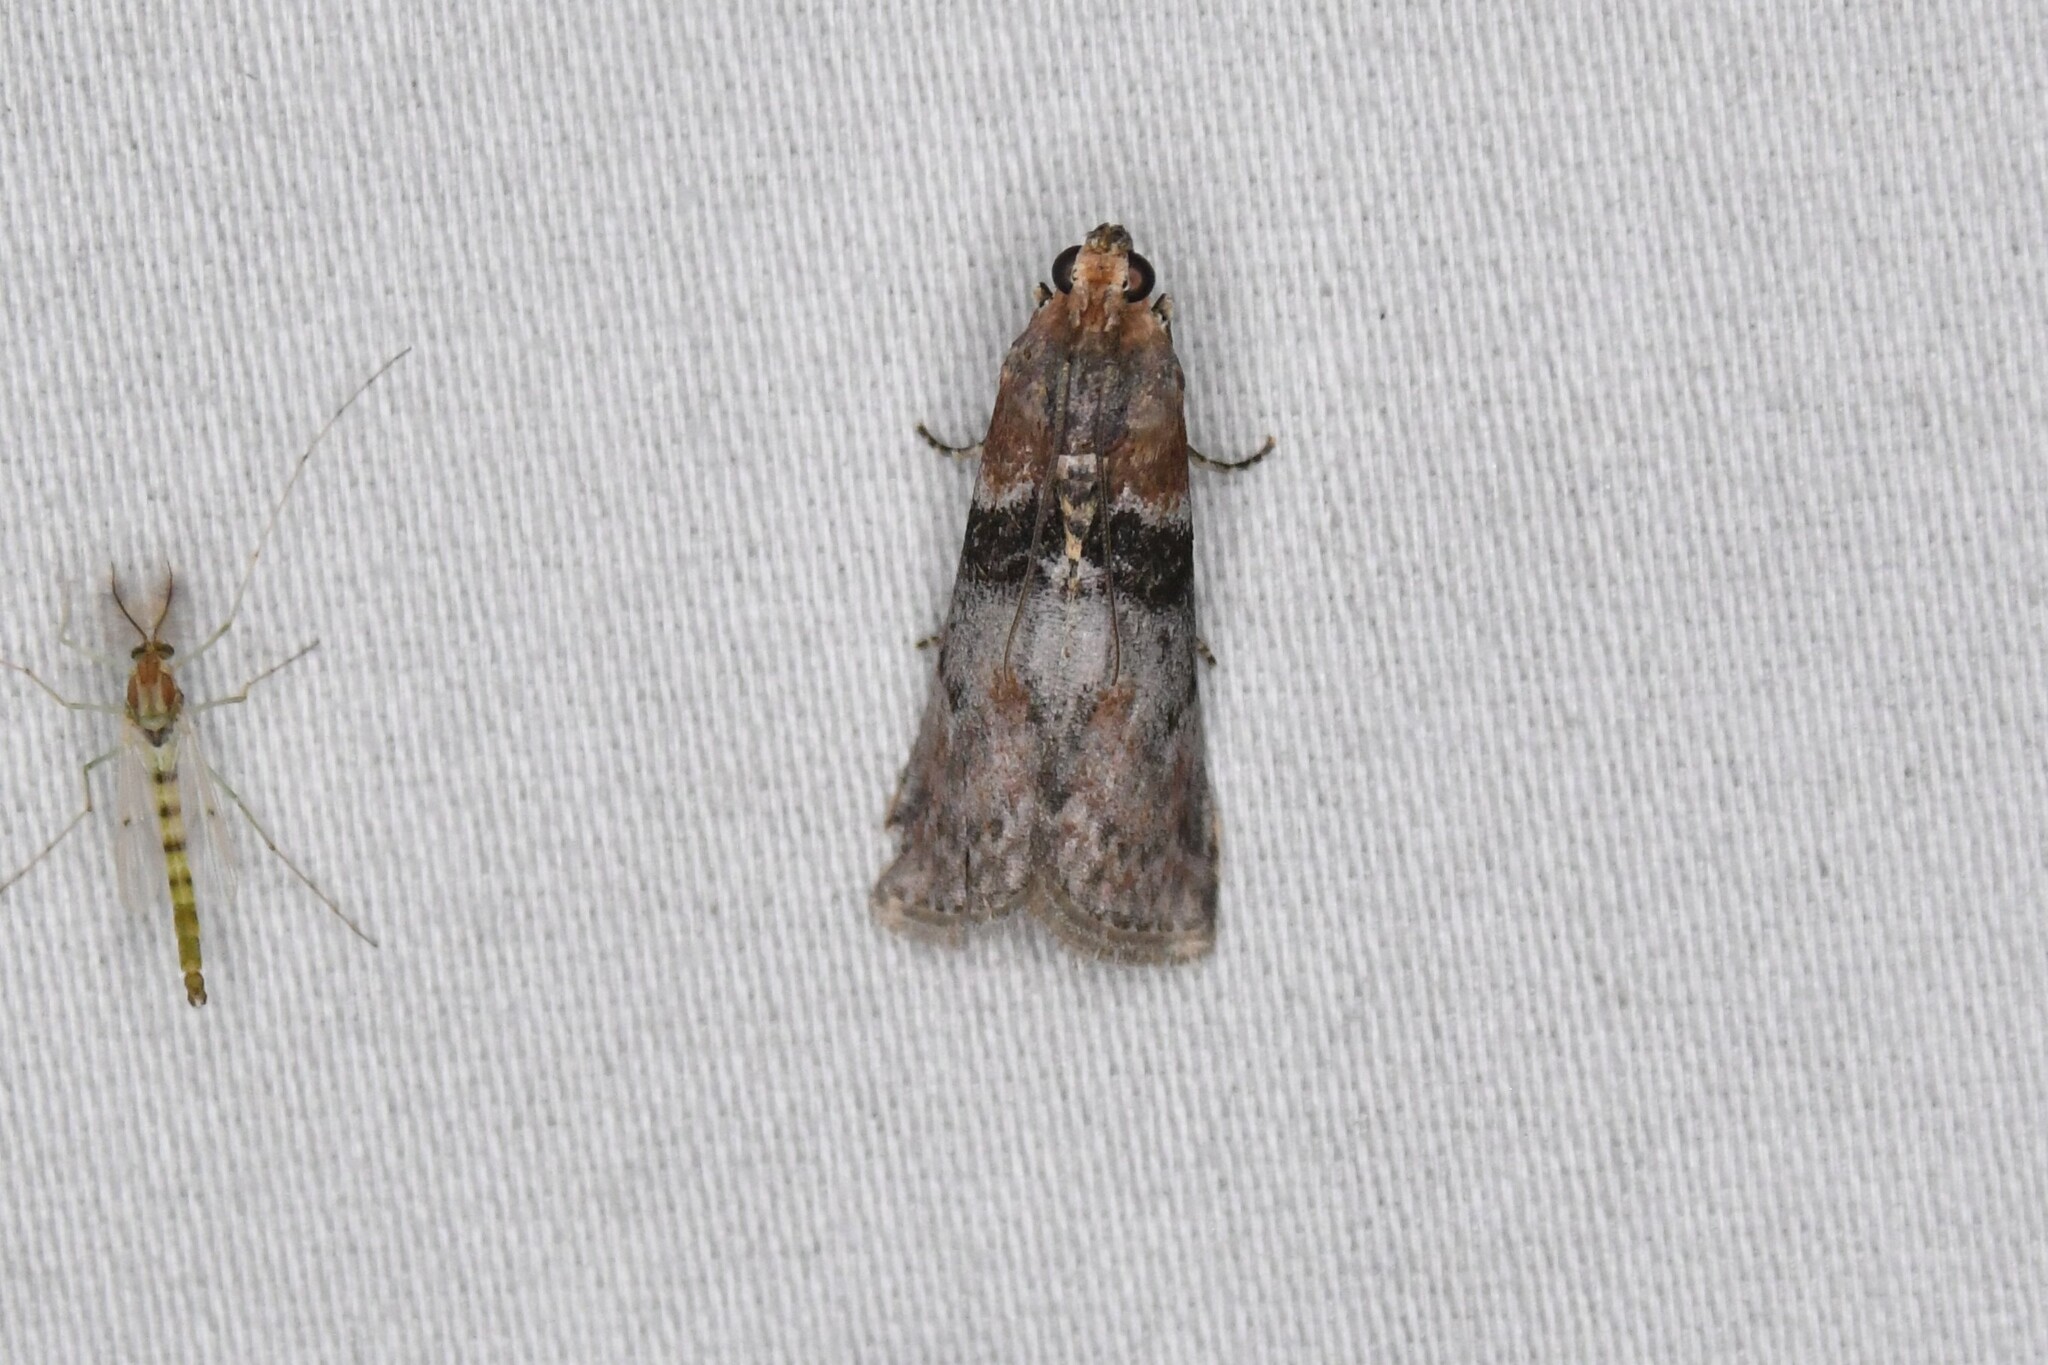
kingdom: Animalia
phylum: Arthropoda
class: Insecta
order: Lepidoptera
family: Pyralidae
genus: Sciota
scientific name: Sciota vetustella
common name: Belted leafroller moth
